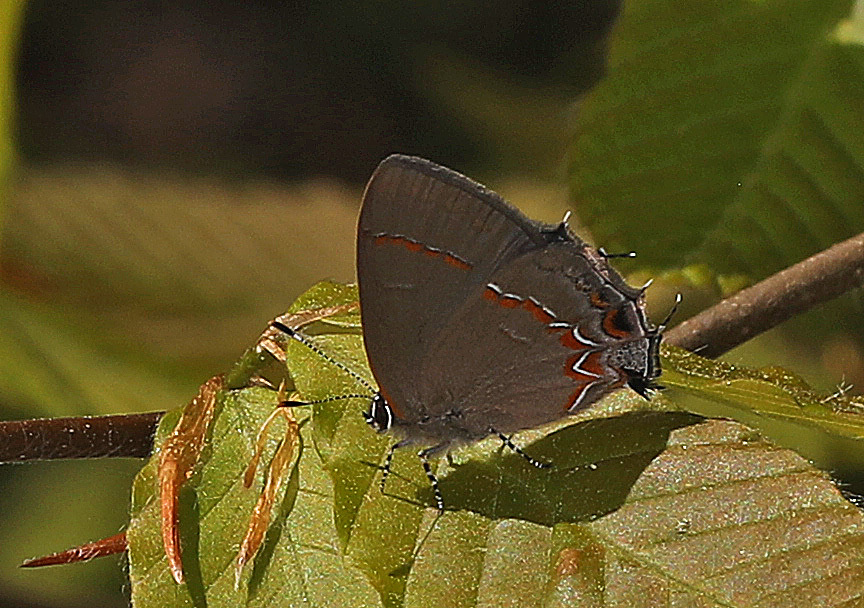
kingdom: Animalia
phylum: Arthropoda
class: Insecta
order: Lepidoptera
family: Lycaenidae
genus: Calycopis
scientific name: Calycopis cecrops
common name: Red-banded hairstreak
